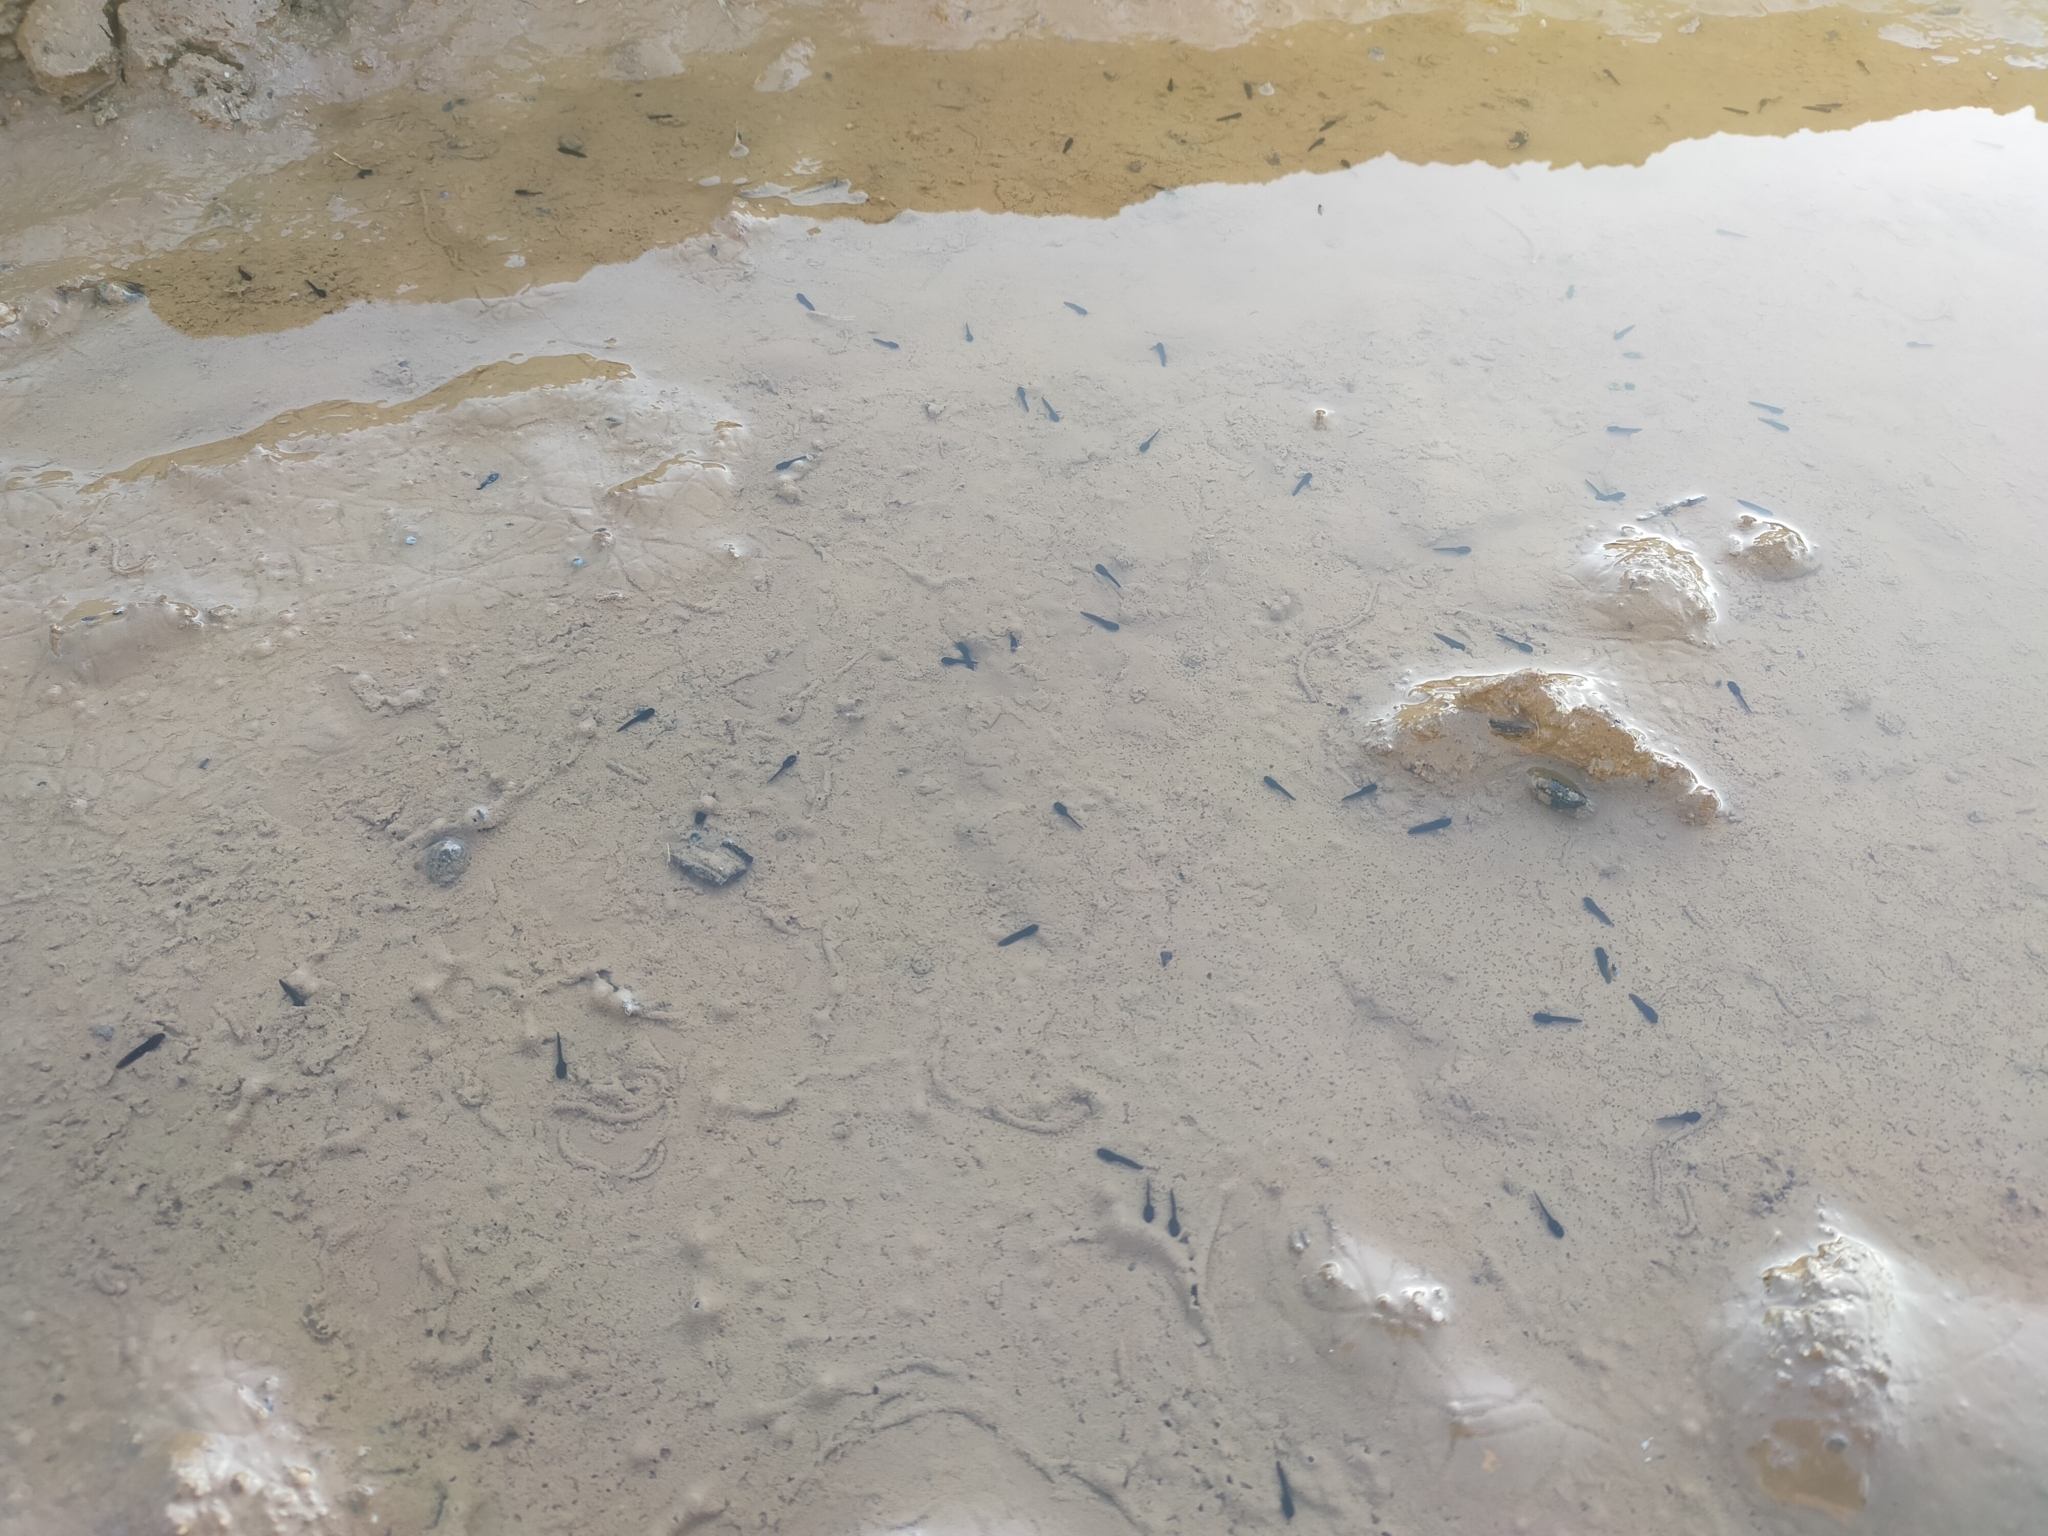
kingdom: Animalia
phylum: Chordata
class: Amphibia
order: Anura
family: Bufonidae
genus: Epidalea
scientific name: Epidalea calamita
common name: Natterjack toad
